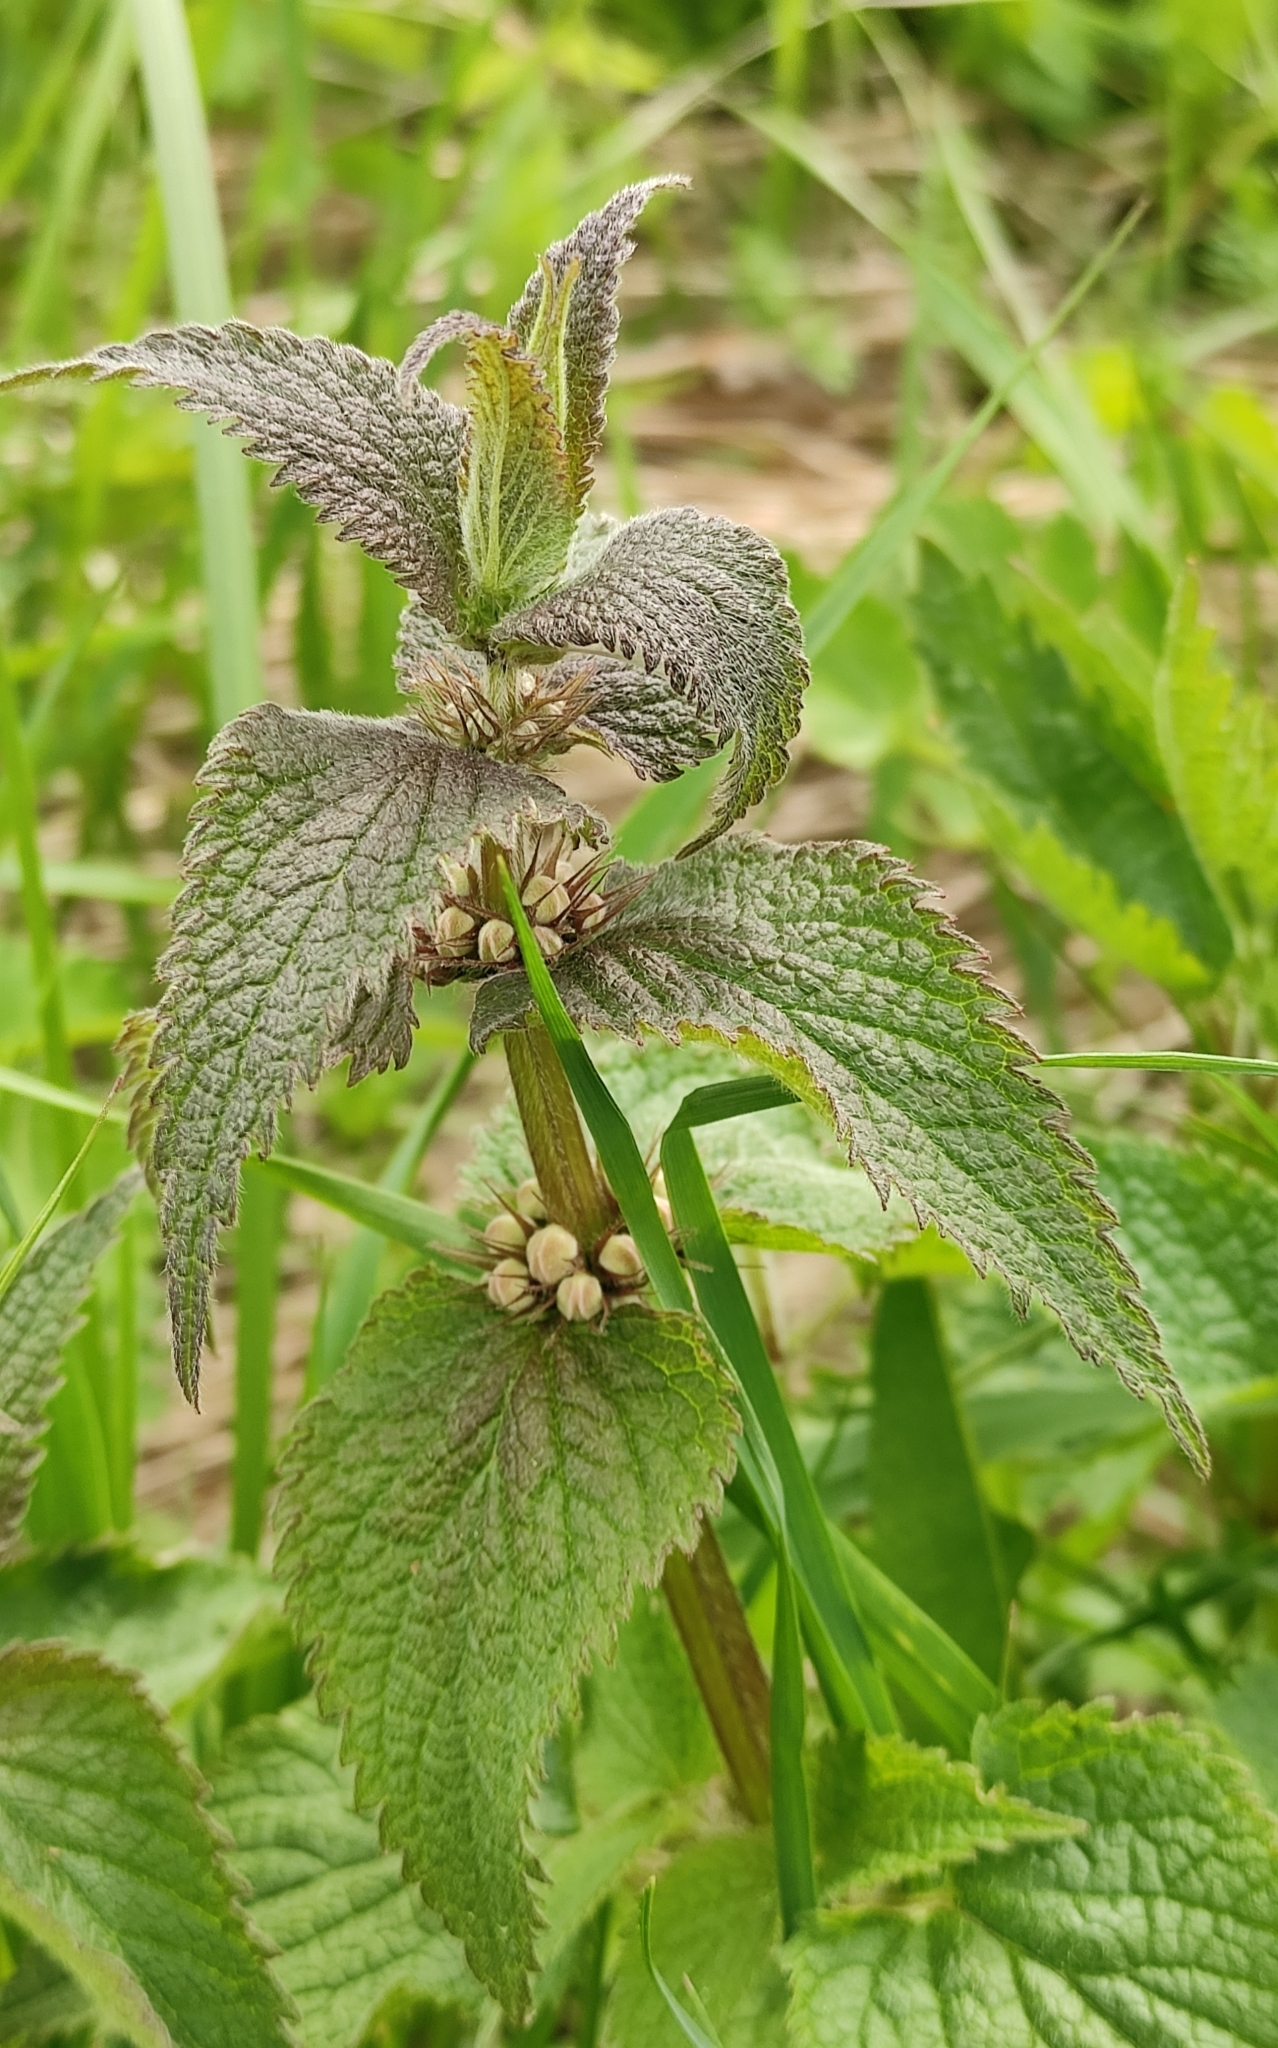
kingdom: Plantae
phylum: Tracheophyta
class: Magnoliopsida
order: Lamiales
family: Lamiaceae
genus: Lamium
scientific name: Lamium album
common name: White dead-nettle
